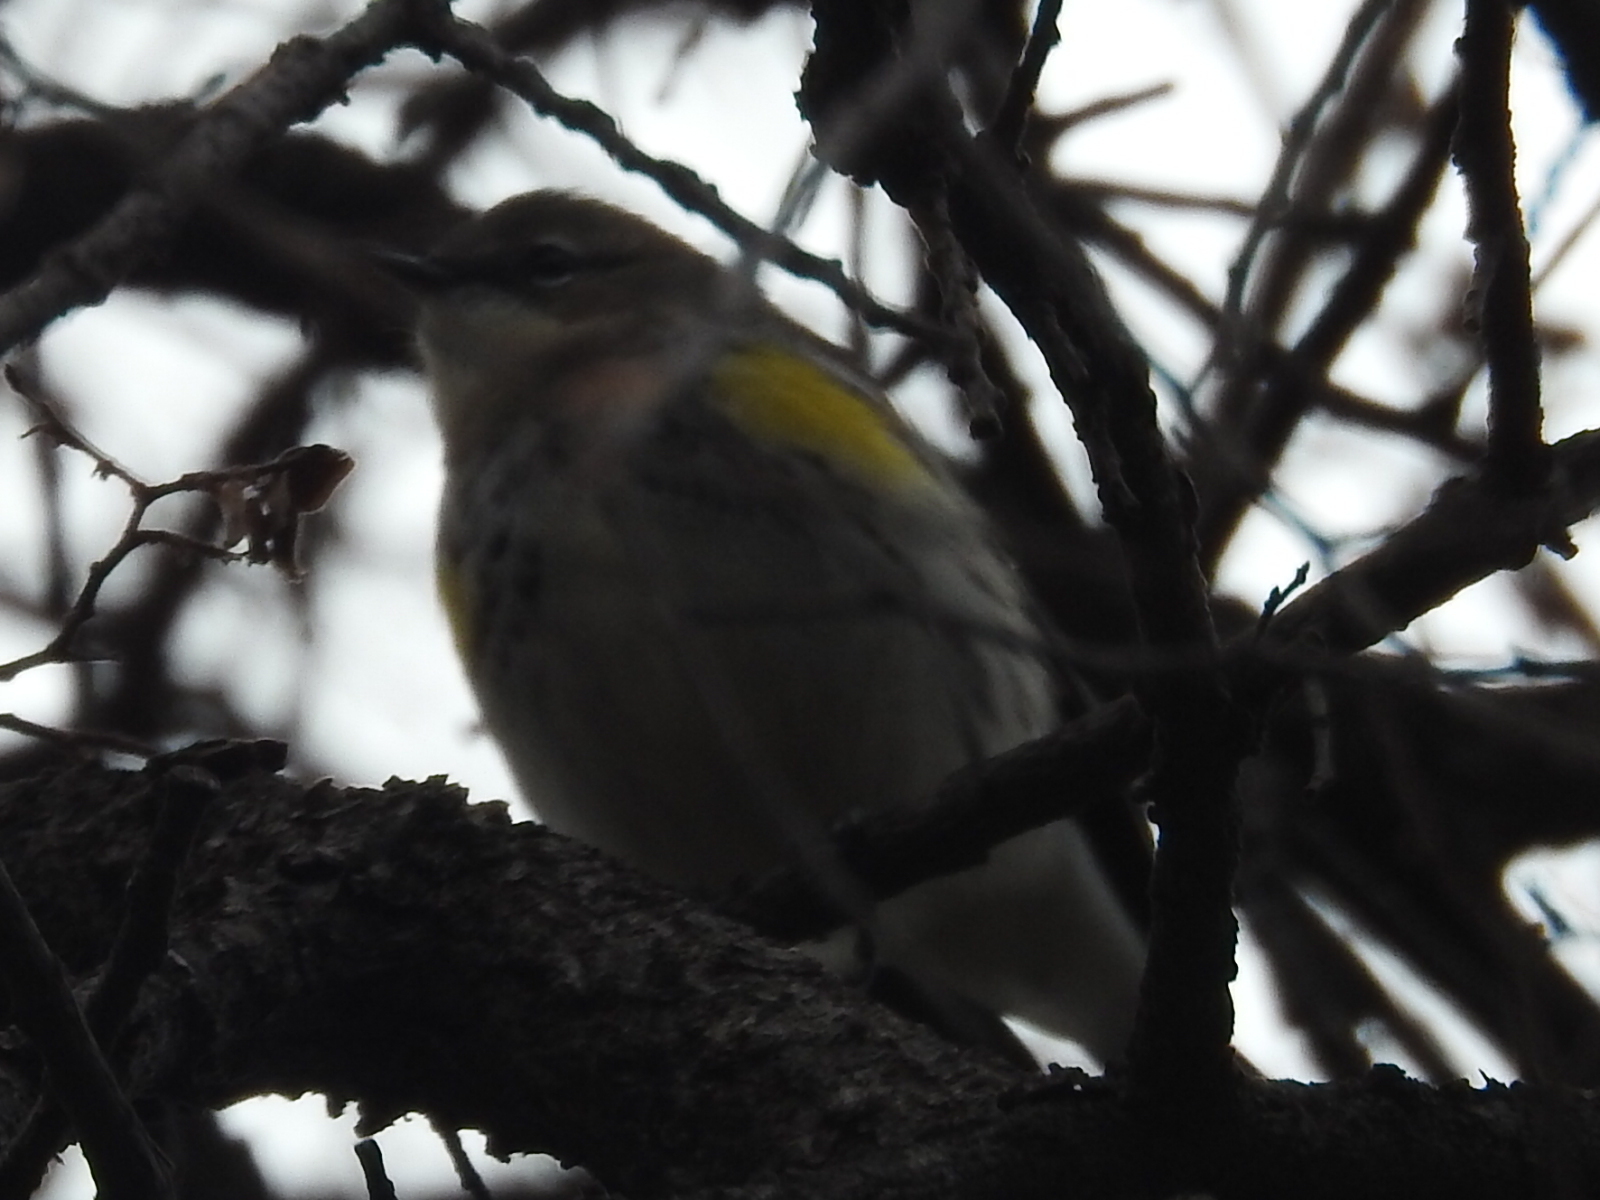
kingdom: Animalia
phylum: Chordata
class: Aves
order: Passeriformes
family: Parulidae
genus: Setophaga
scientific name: Setophaga coronata
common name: Myrtle warbler
